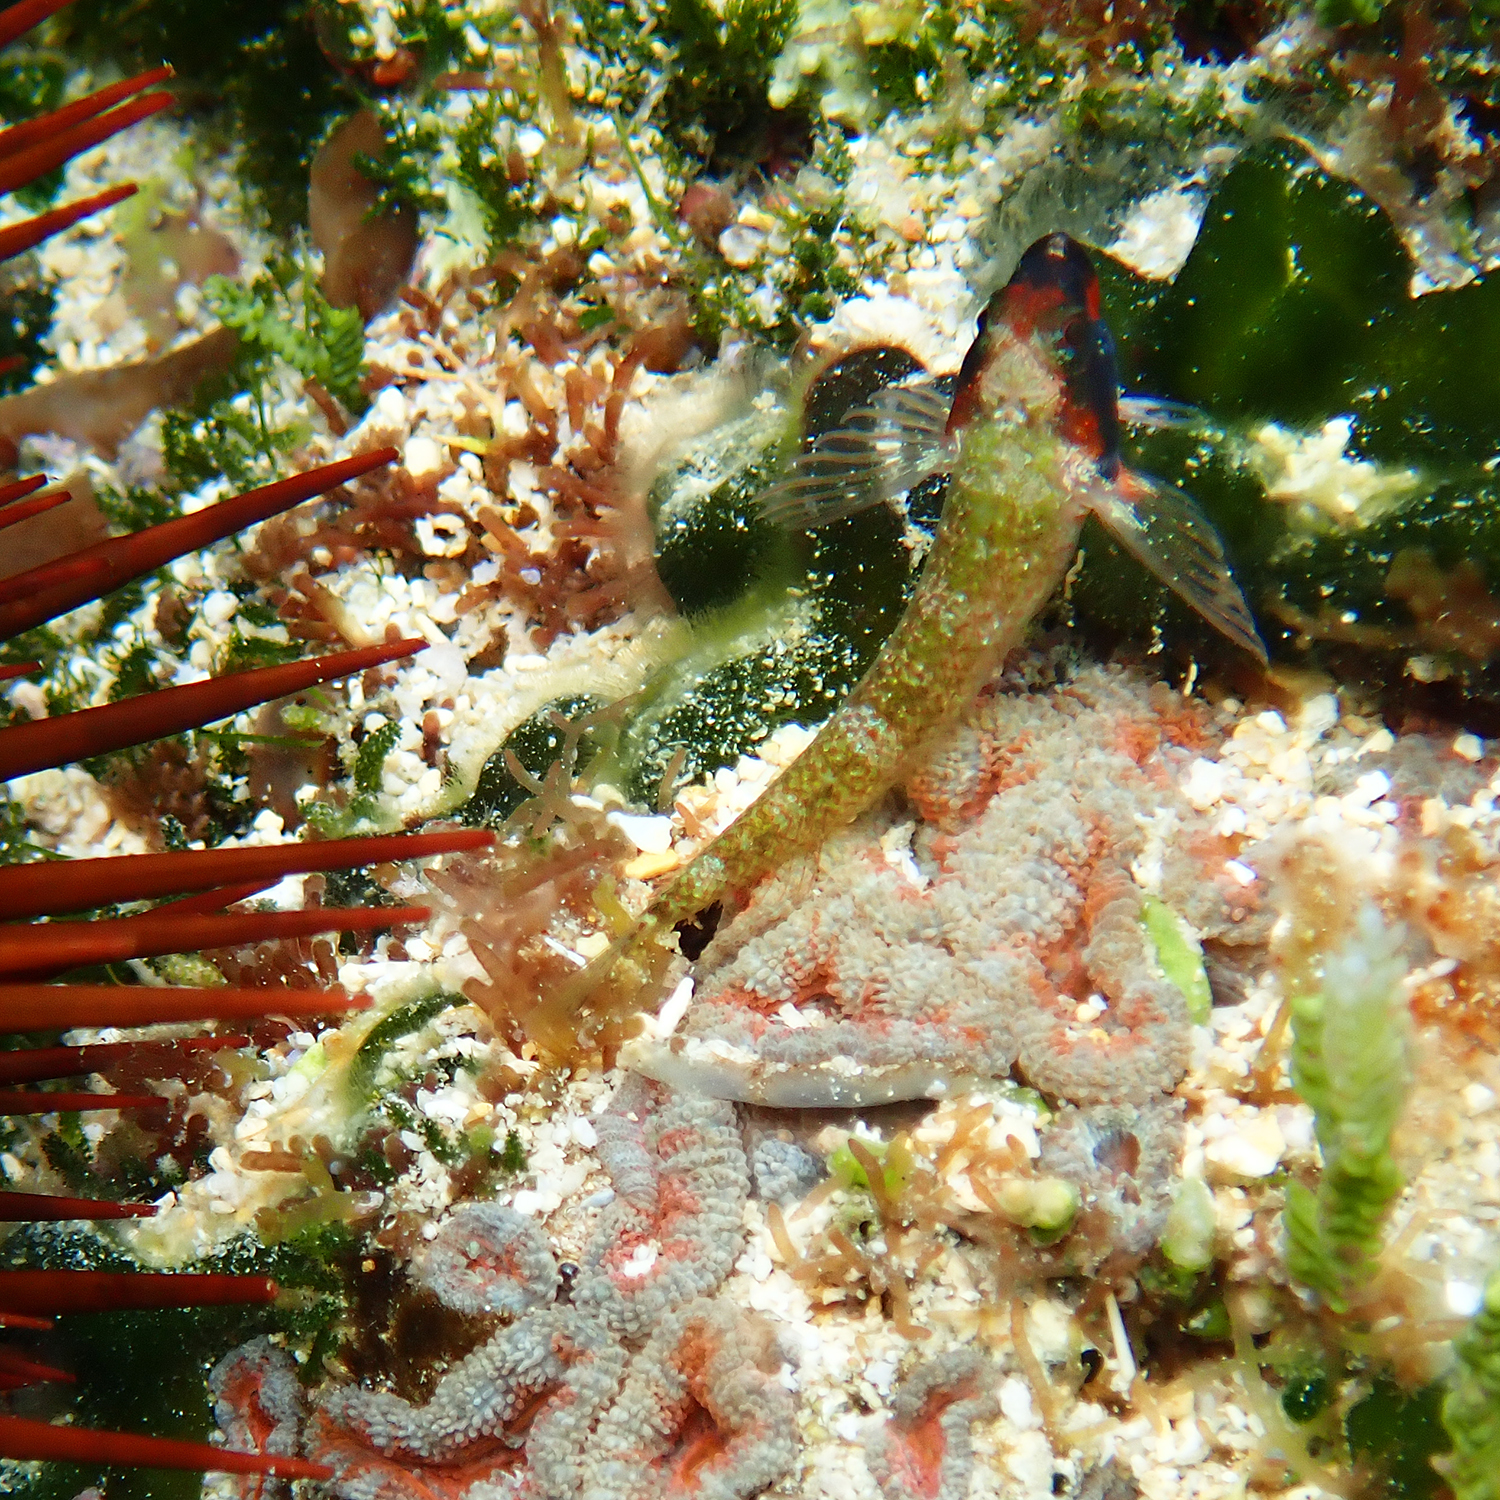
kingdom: Animalia
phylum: Chordata
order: Perciformes
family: Tripterygiidae
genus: Enneapterygius
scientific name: Enneapterygius rufopileus
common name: Lord howe black-head triplefin
